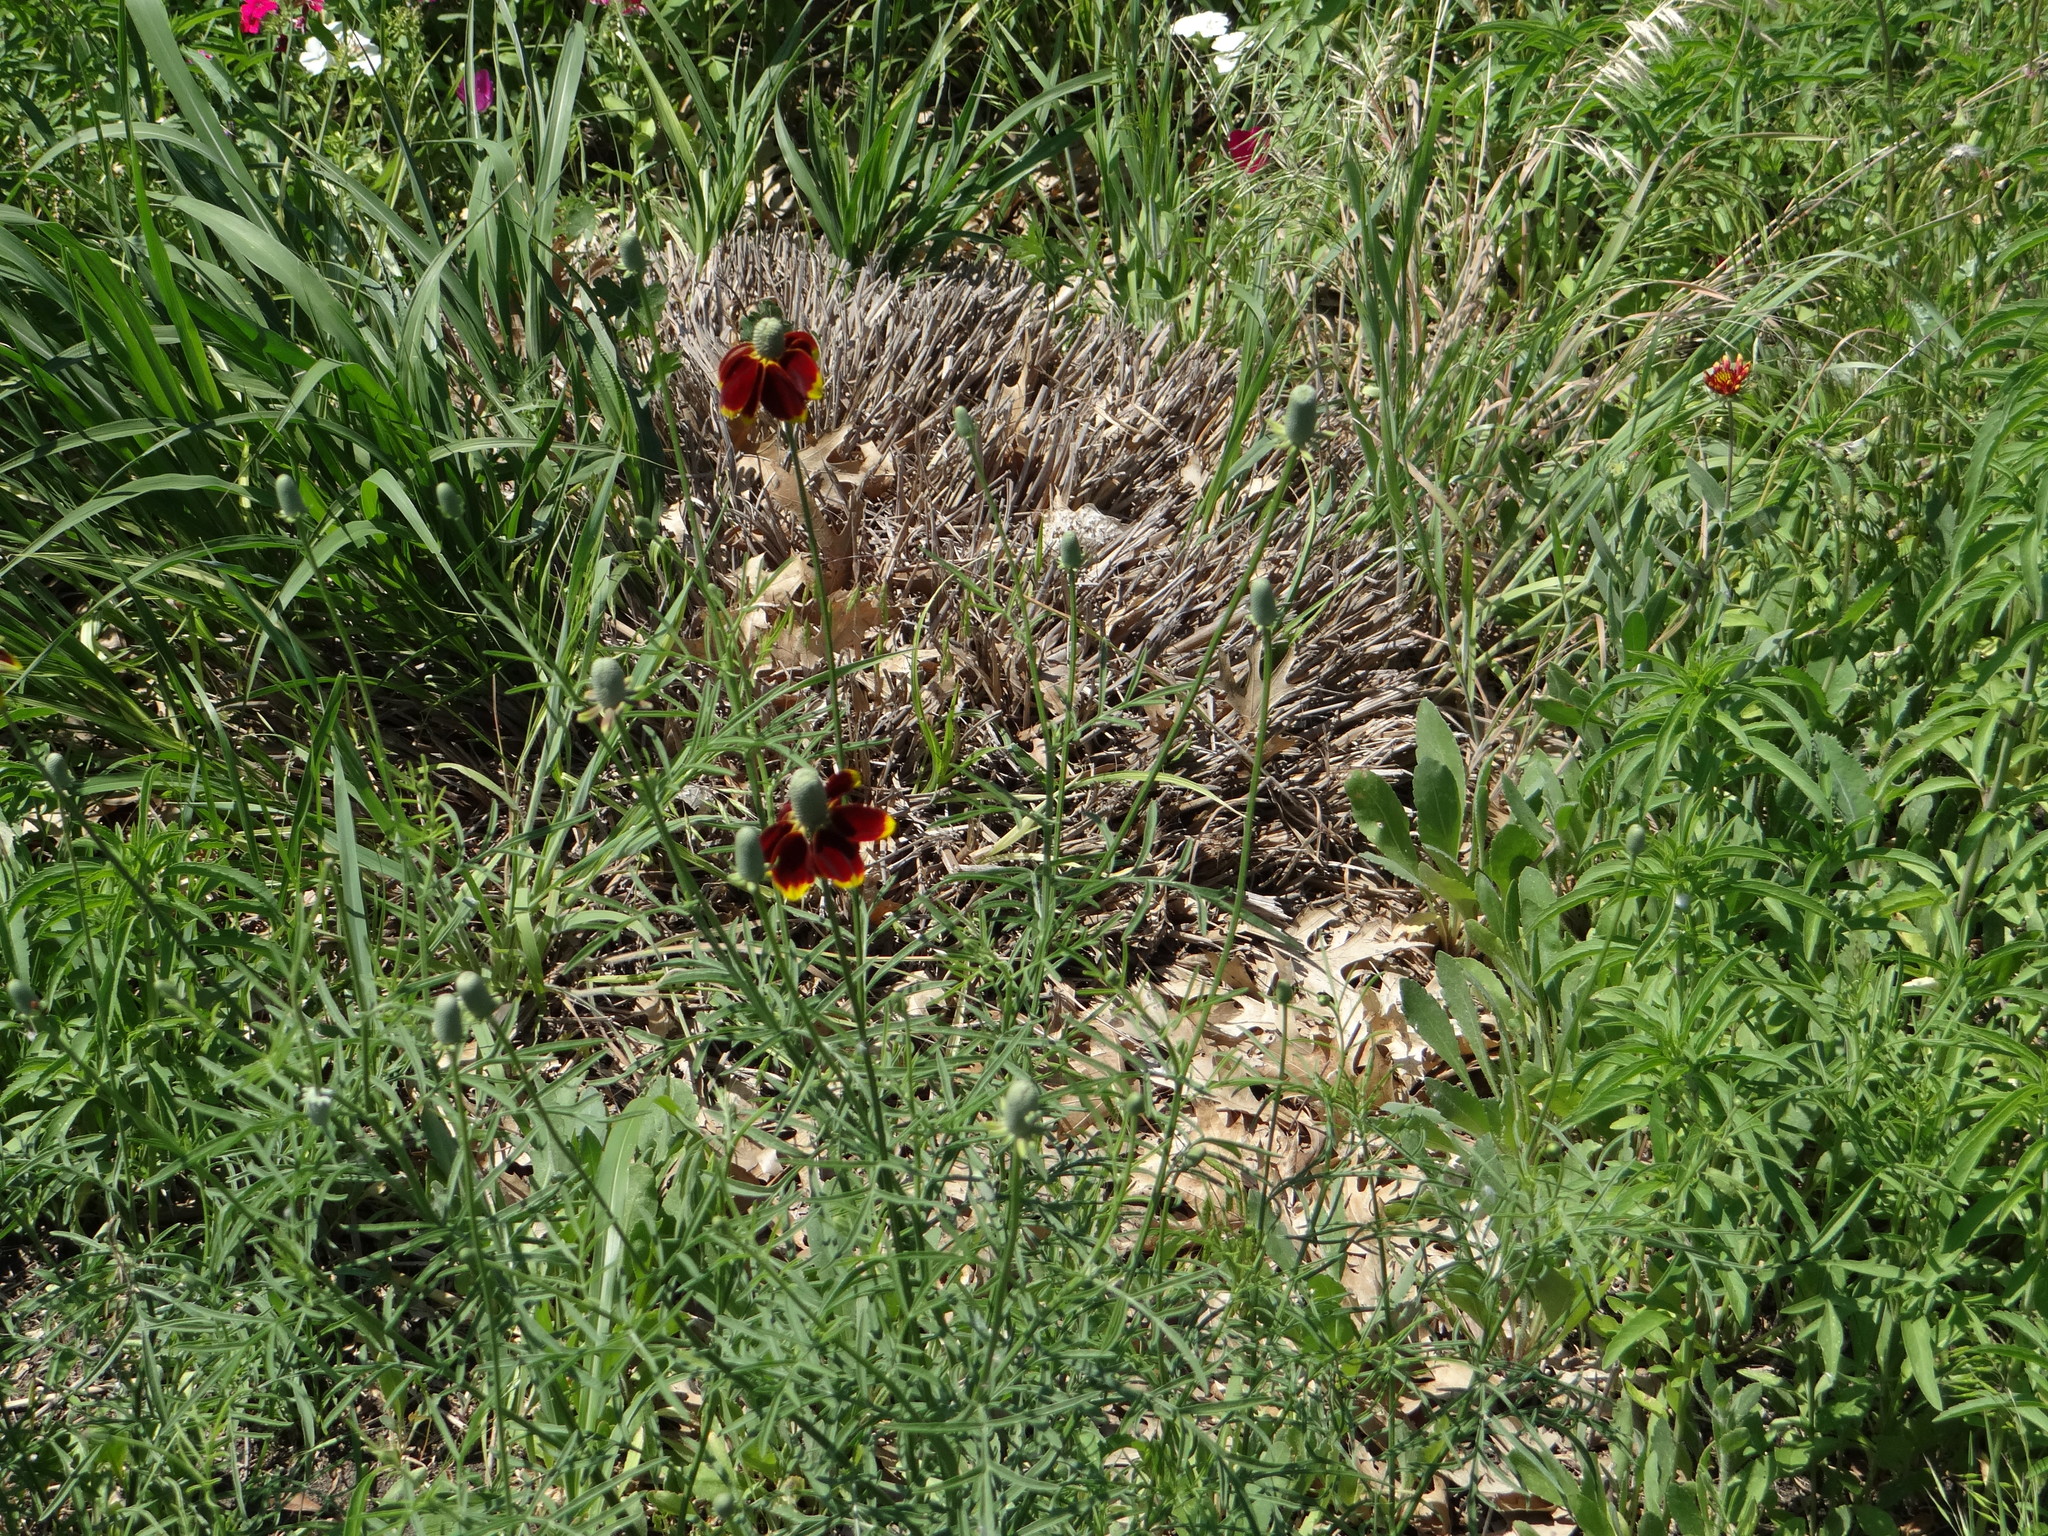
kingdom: Plantae
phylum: Tracheophyta
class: Magnoliopsida
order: Asterales
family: Asteraceae
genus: Ratibida
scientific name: Ratibida columnifera
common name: Prairie coneflower
